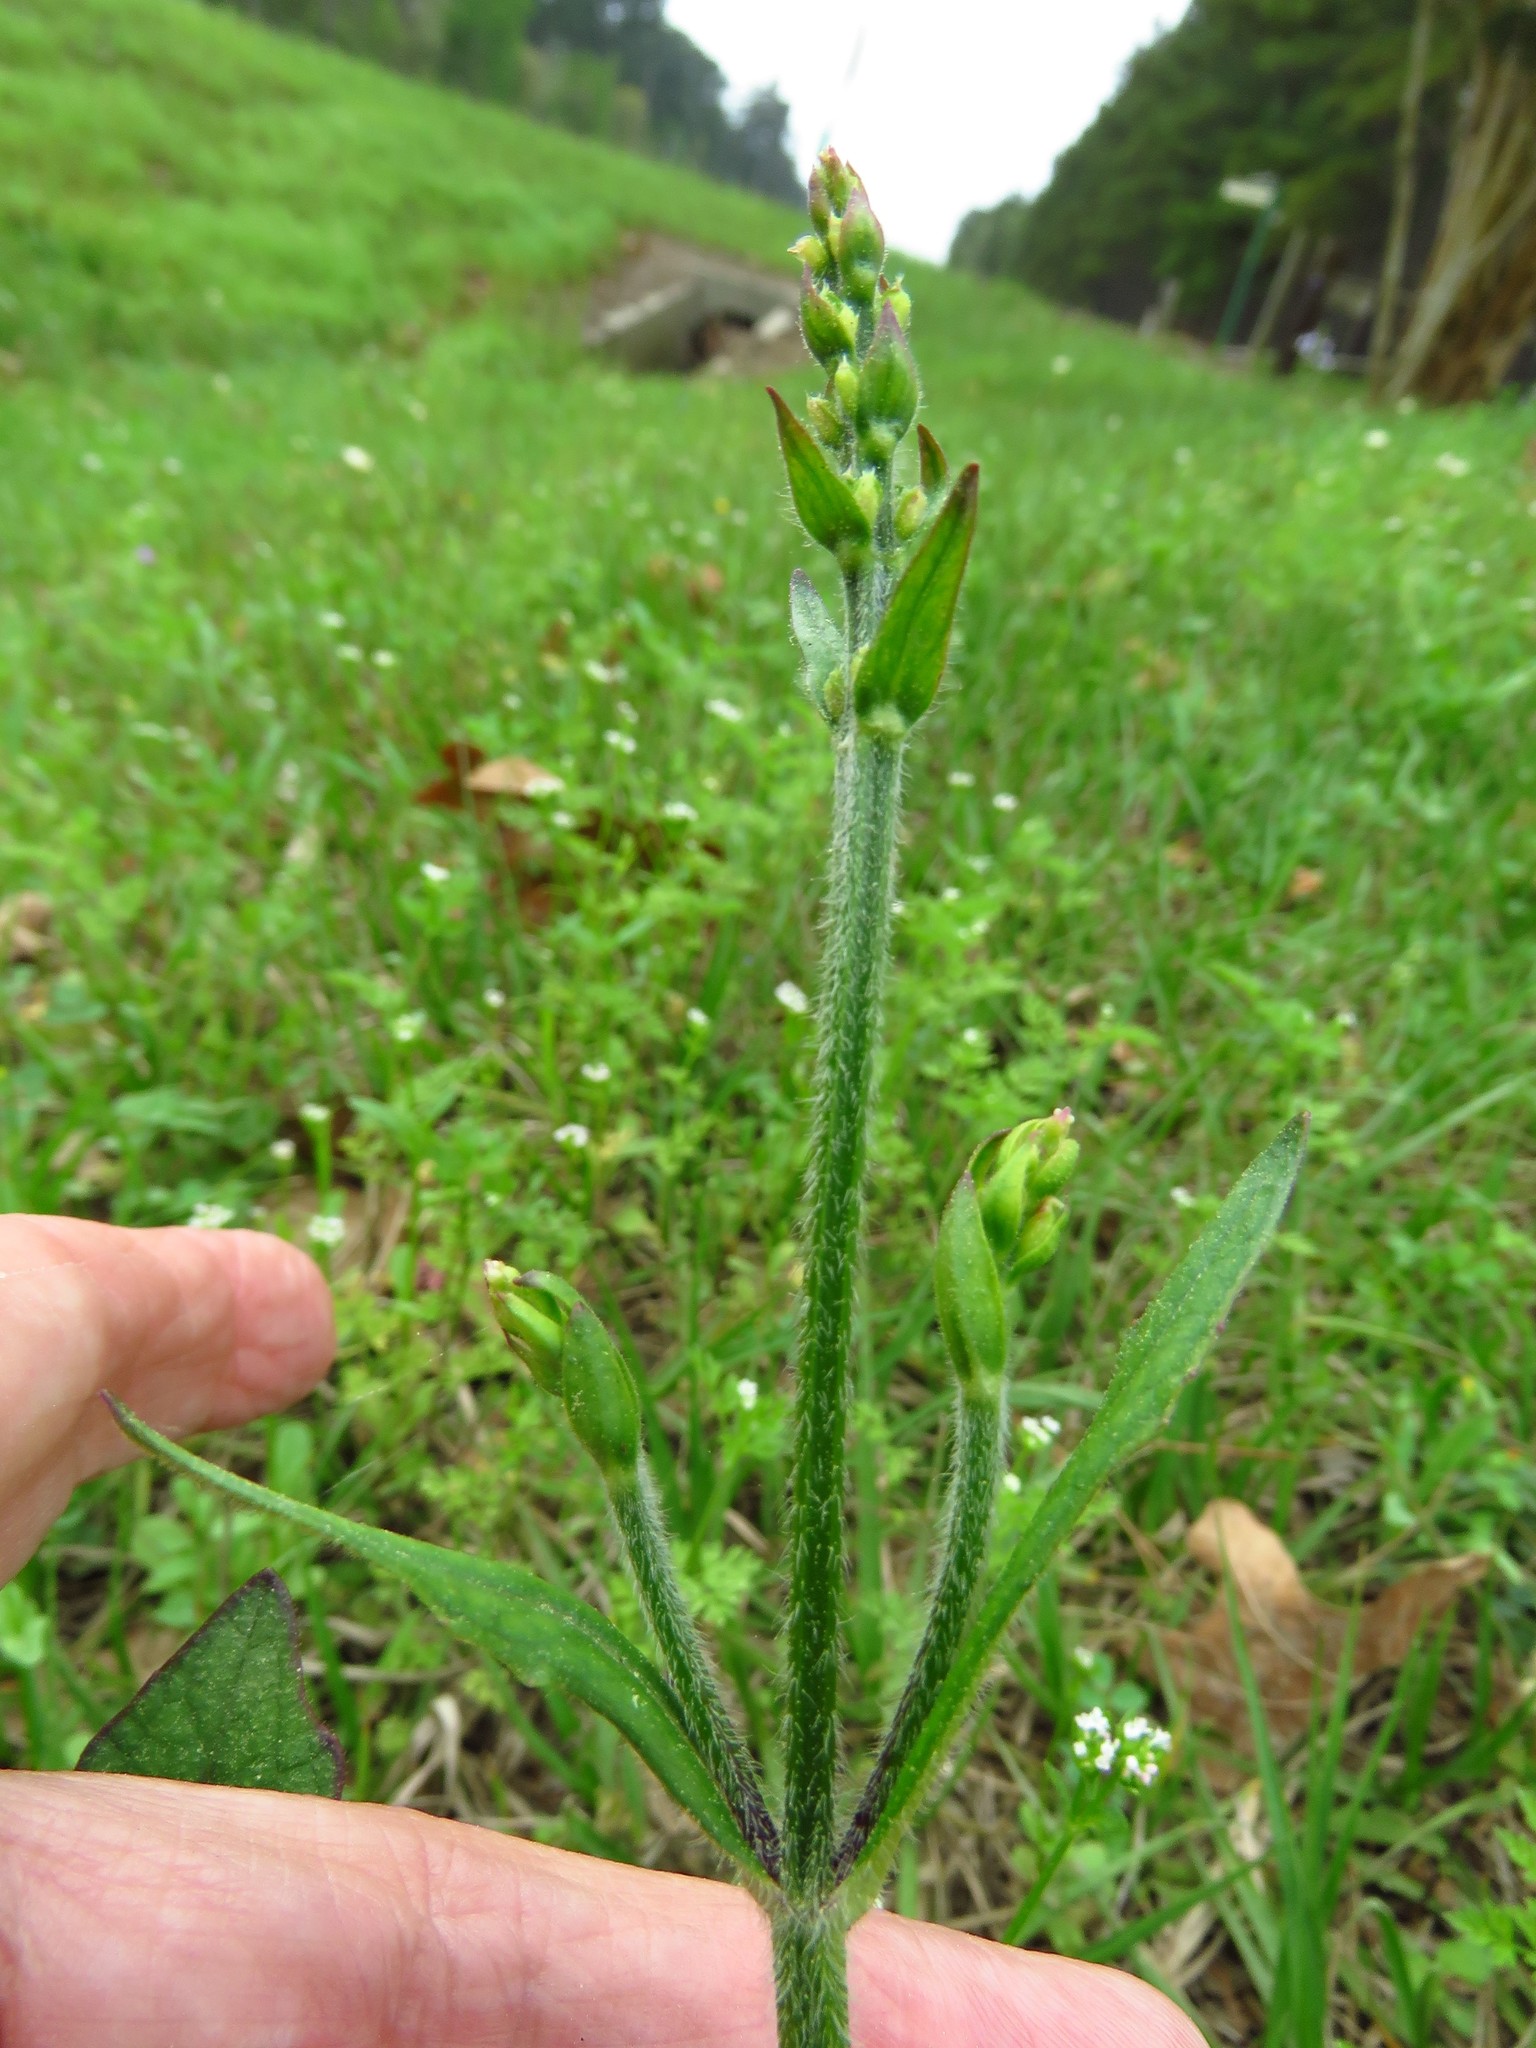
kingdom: Plantae
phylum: Tracheophyta
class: Magnoliopsida
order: Lamiales
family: Lamiaceae
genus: Salvia
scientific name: Salvia lyrata
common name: Cancerweed
